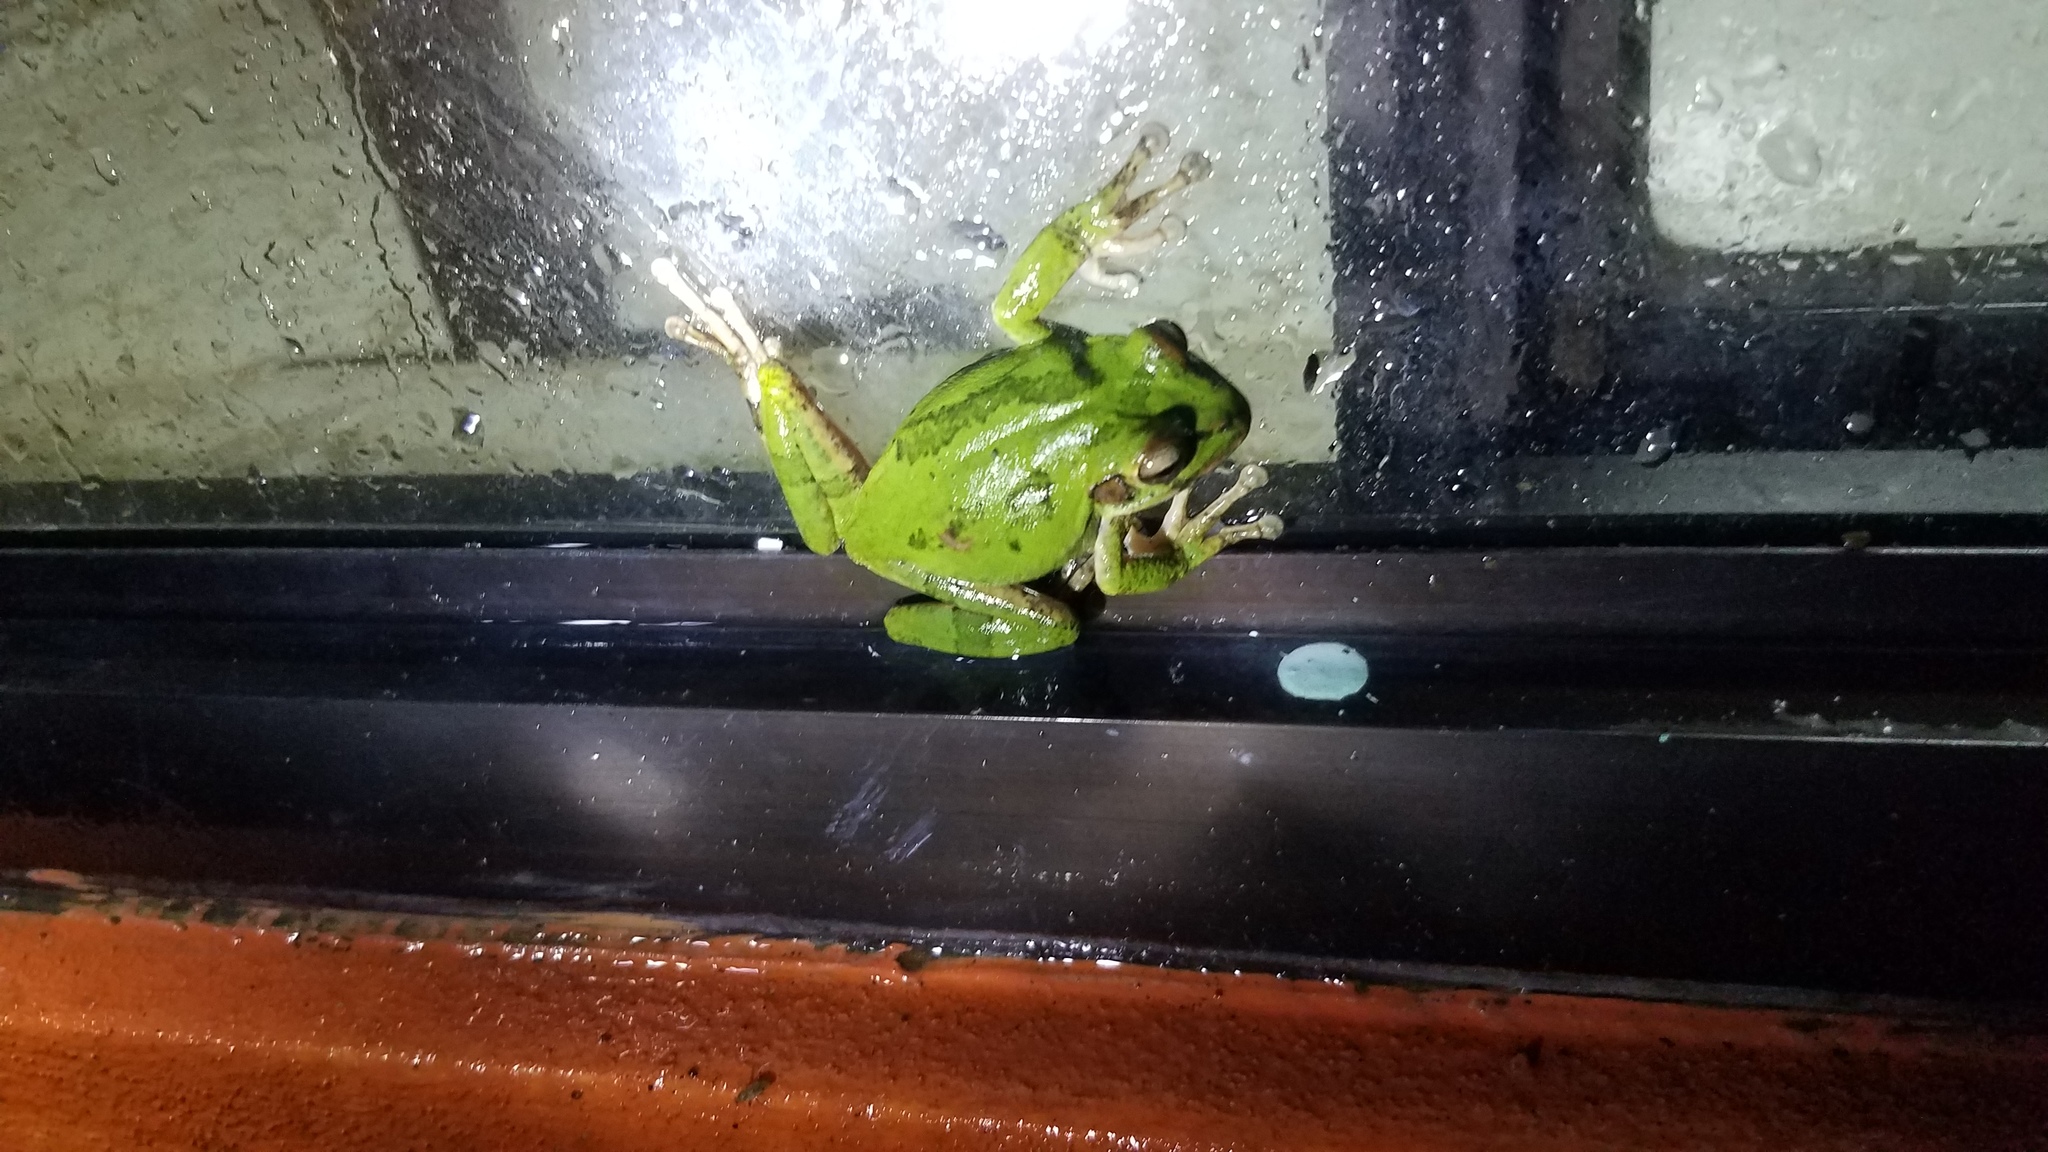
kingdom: Animalia
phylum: Chordata
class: Amphibia
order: Anura
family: Hylidae
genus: Smilisca
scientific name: Smilisca baudinii
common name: Mexican smilisca
